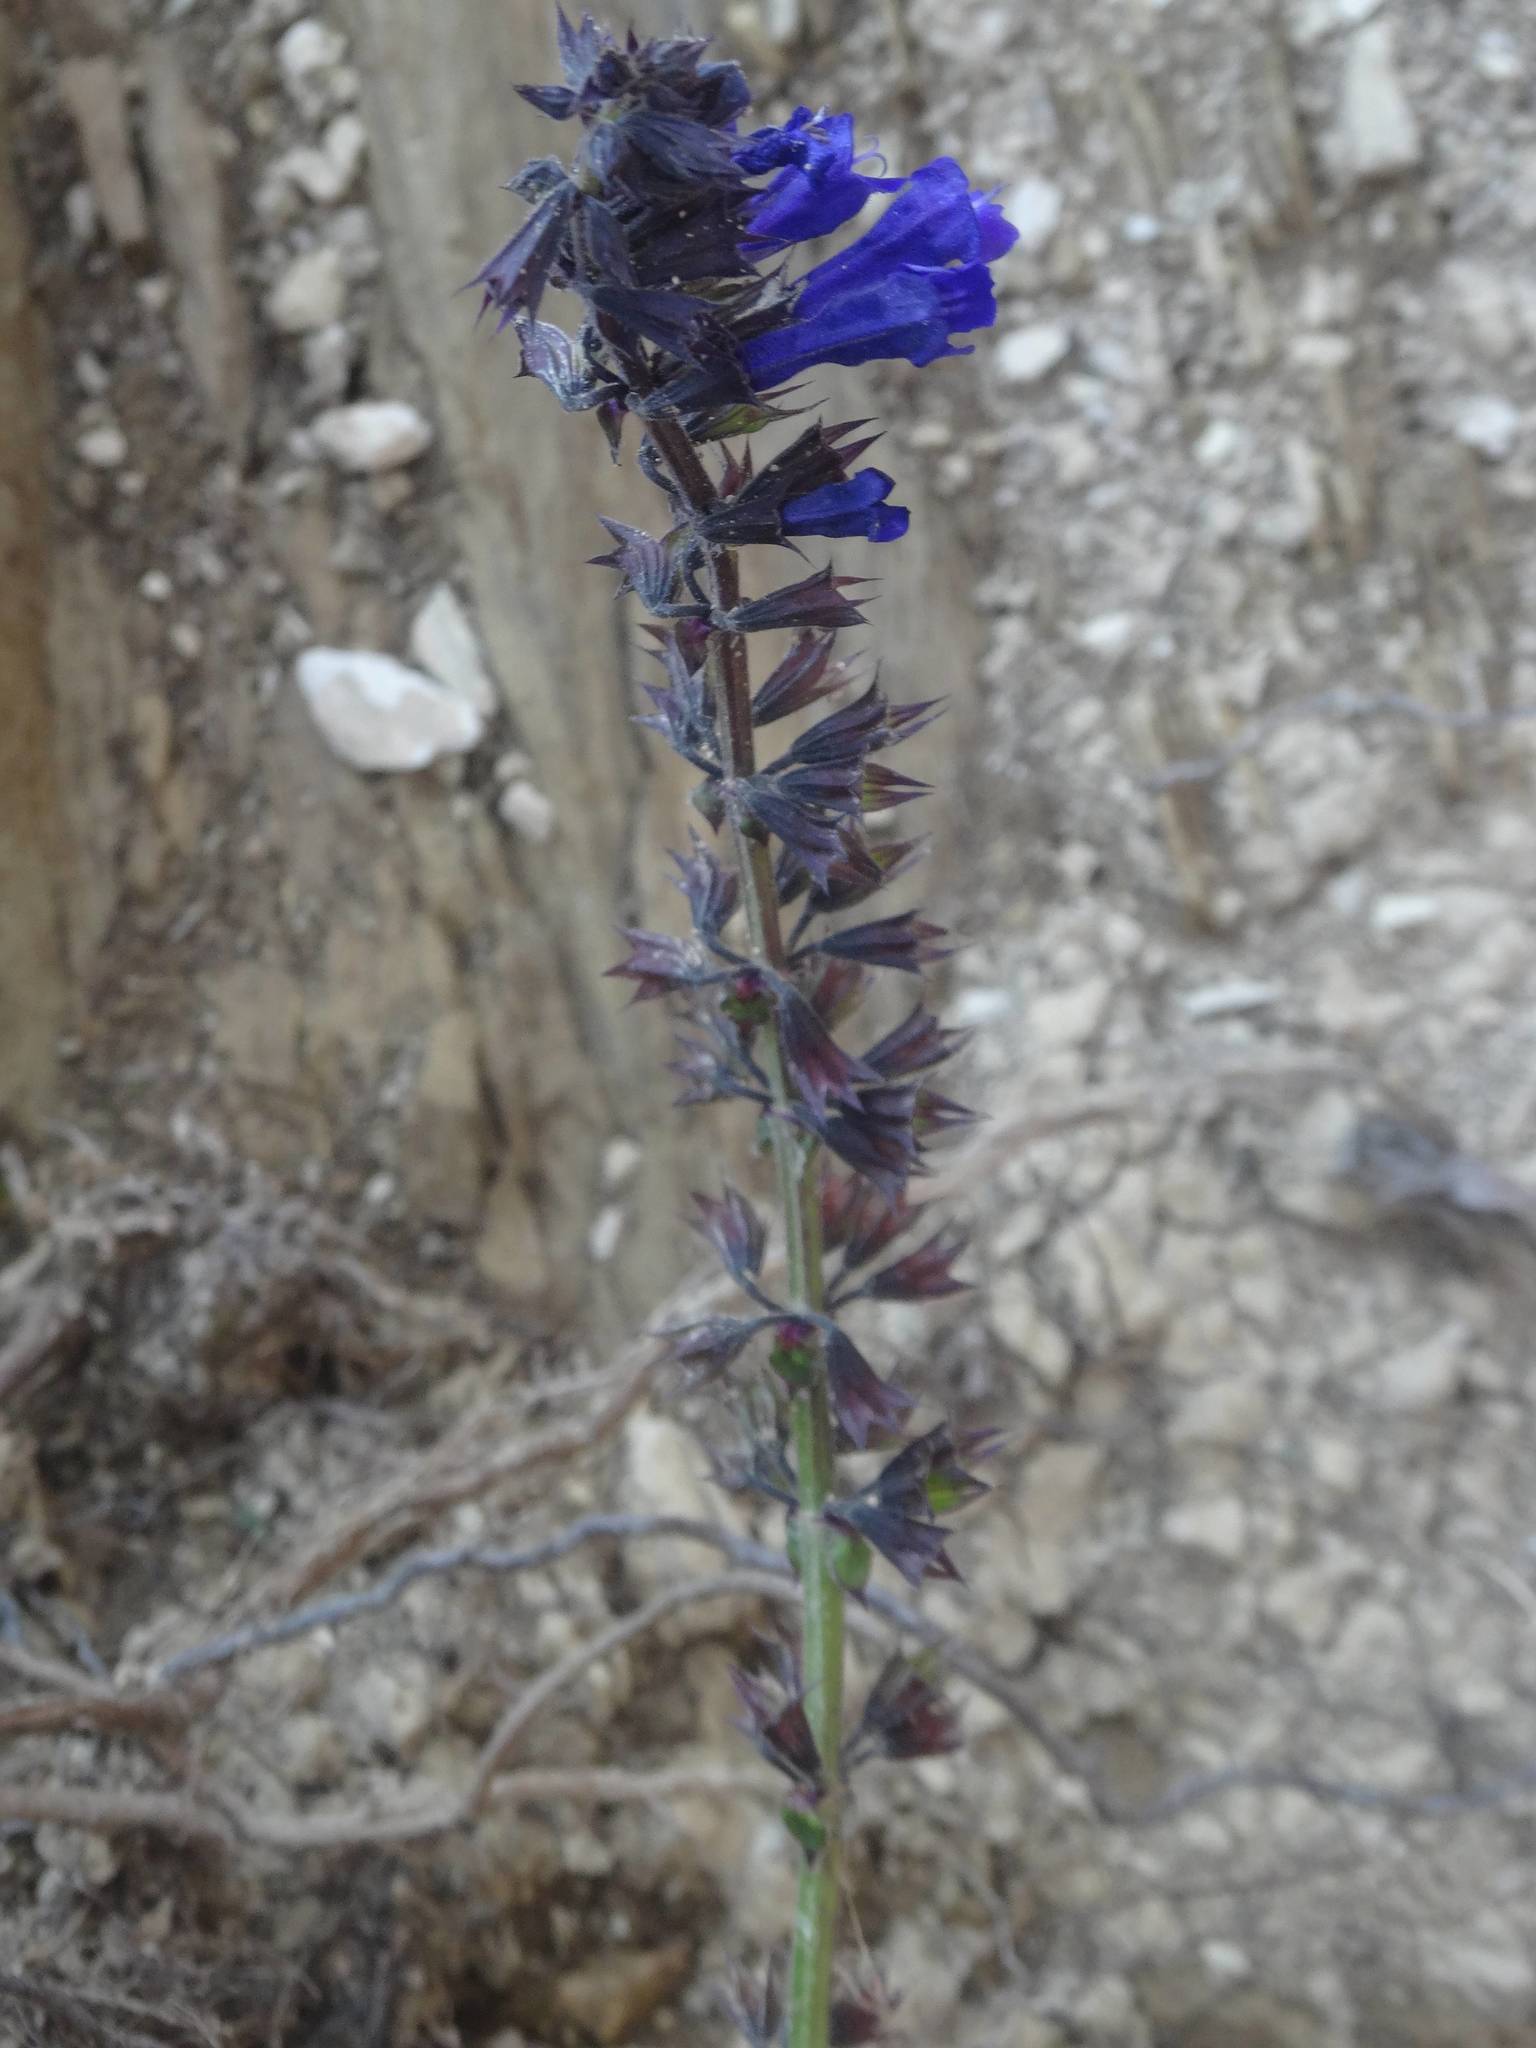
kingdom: Plantae
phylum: Tracheophyta
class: Magnoliopsida
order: Lamiales
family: Lamiaceae
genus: Horminum
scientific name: Horminum pyrenaicum
